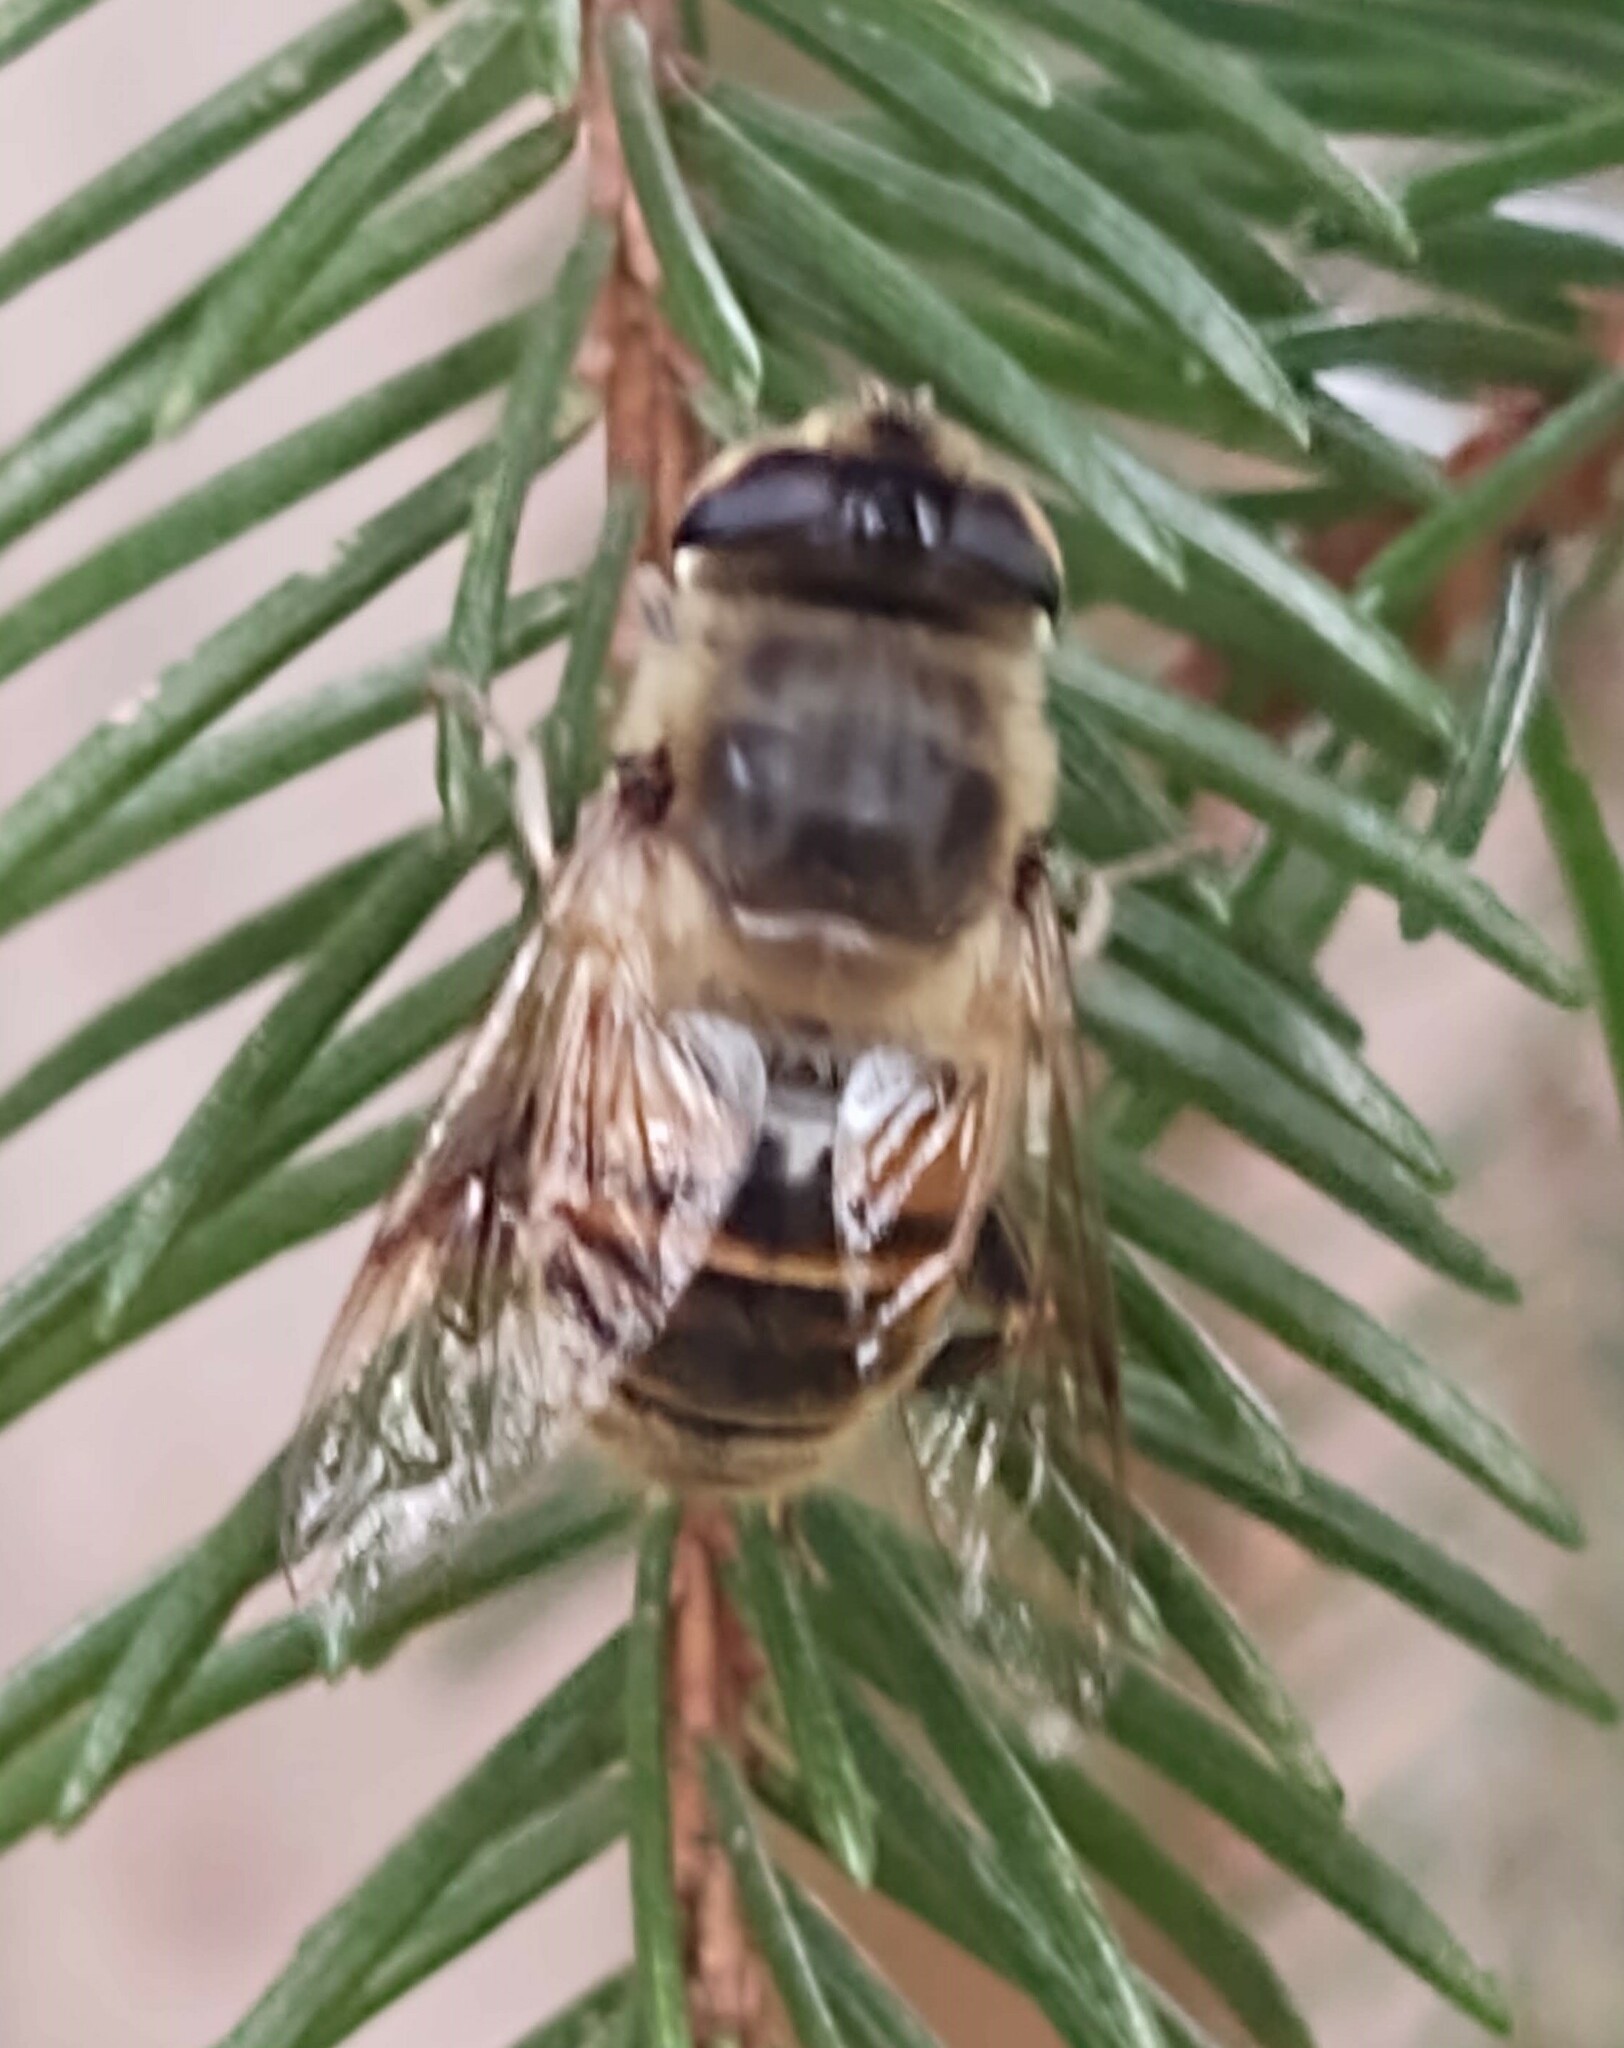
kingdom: Animalia
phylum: Arthropoda
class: Insecta
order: Diptera
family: Syrphidae
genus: Eristalis
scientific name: Eristalis tenax
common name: Drone fly
